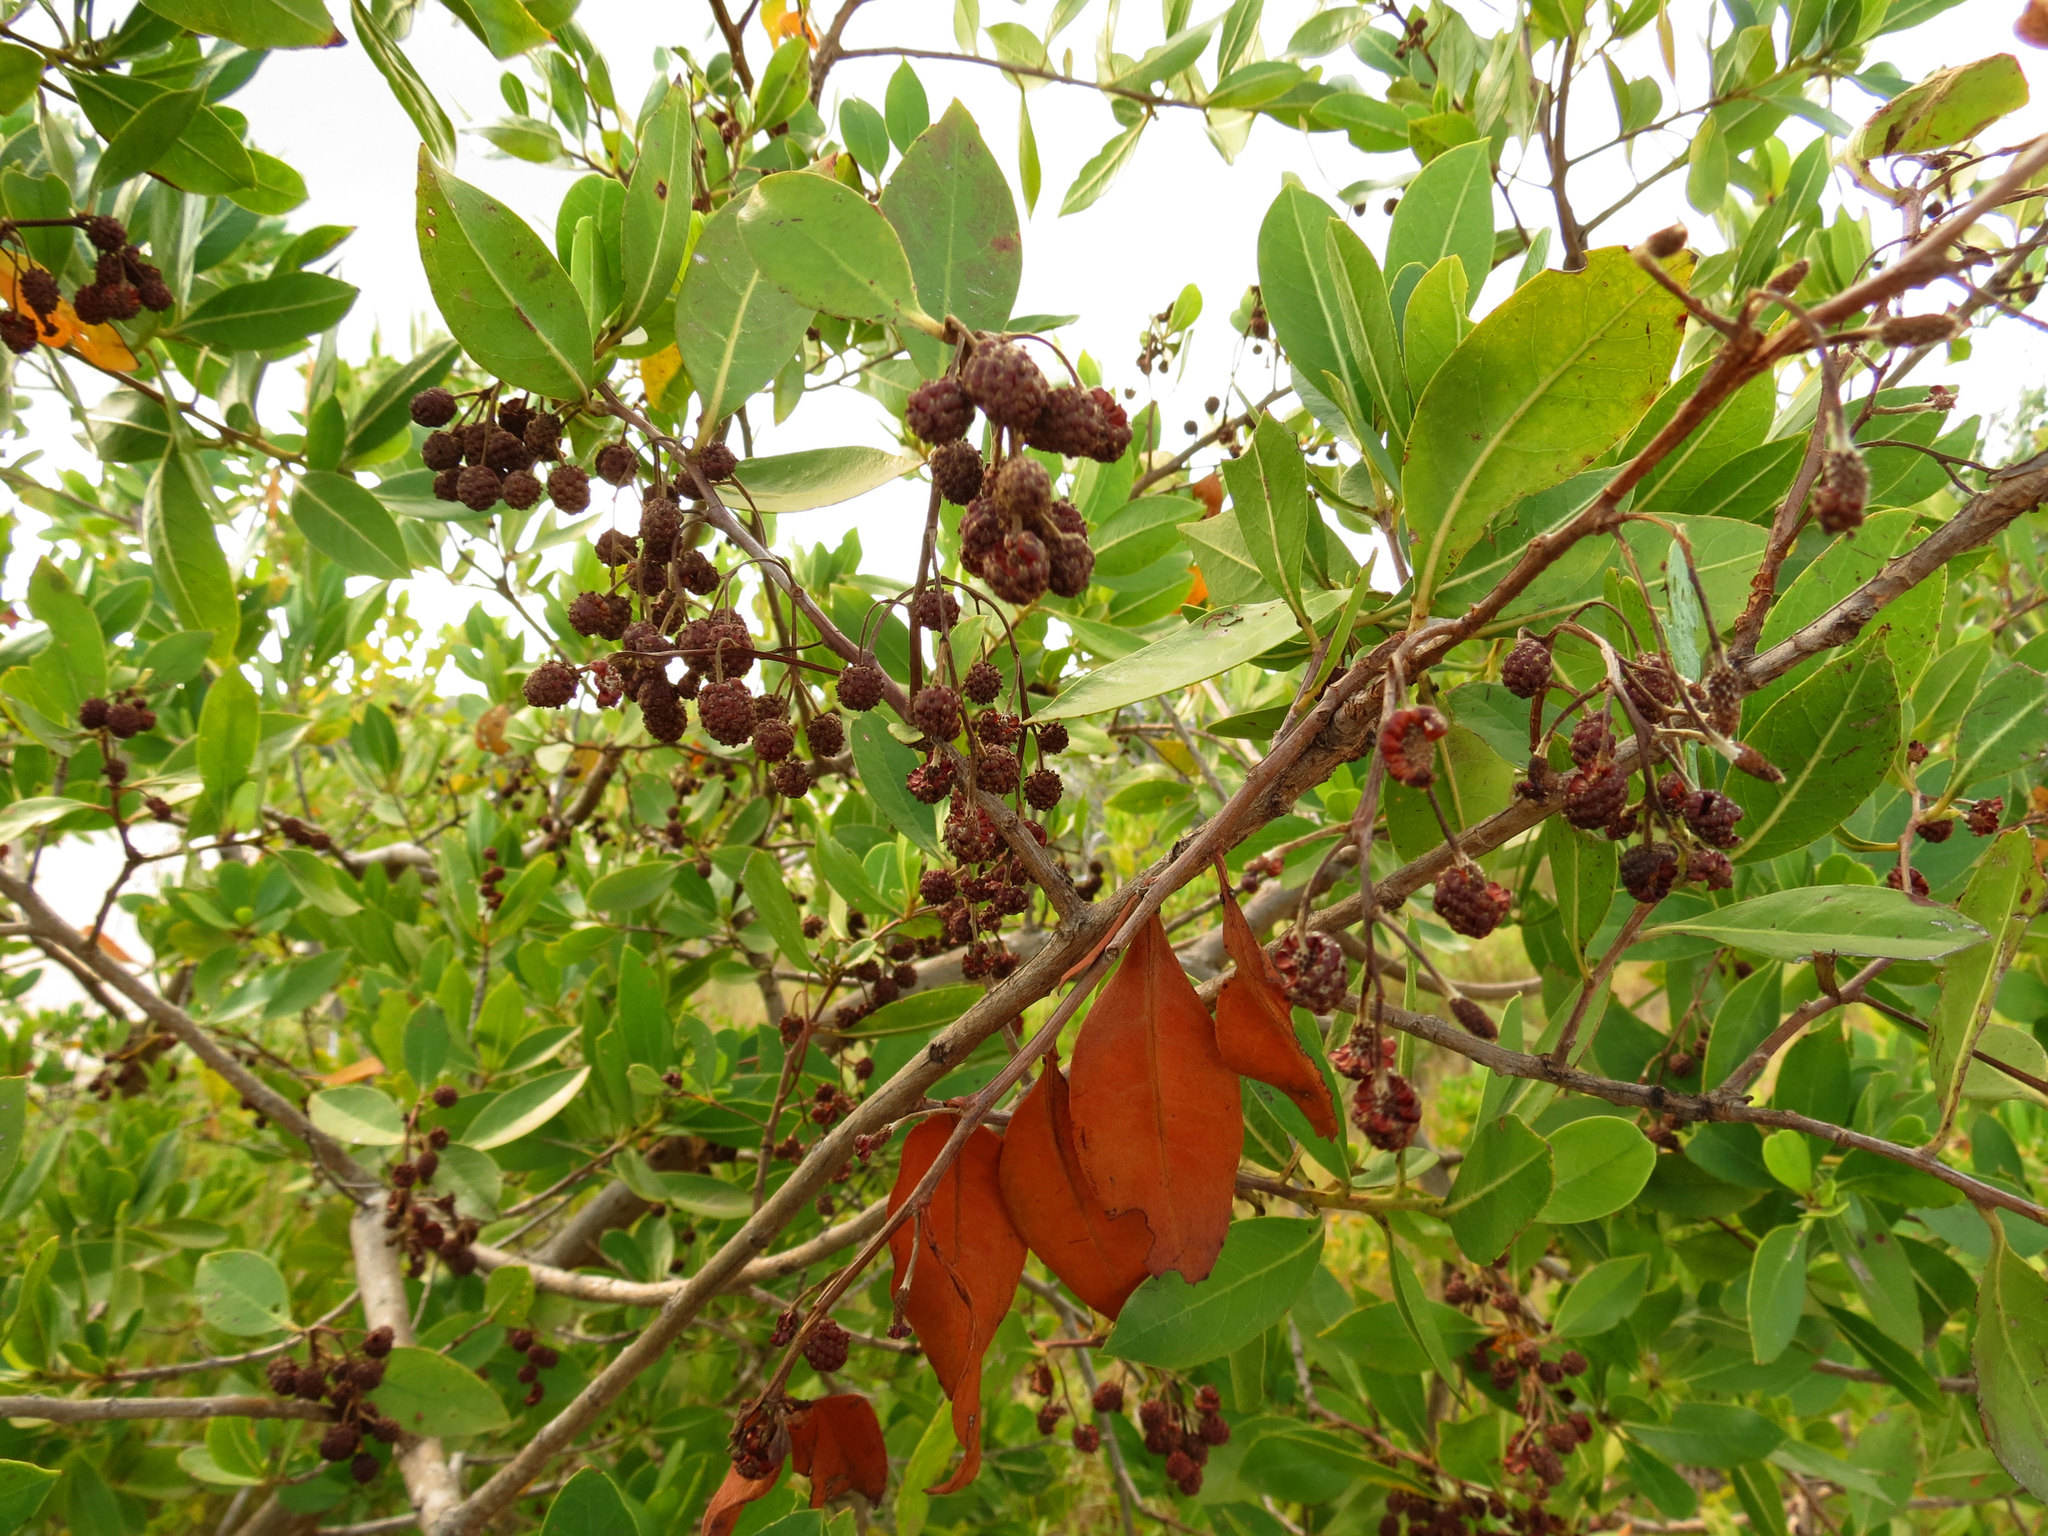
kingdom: Plantae
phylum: Tracheophyta
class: Magnoliopsida
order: Myrtales
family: Combretaceae
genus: Conocarpus
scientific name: Conocarpus erectus
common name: Button mangrove
